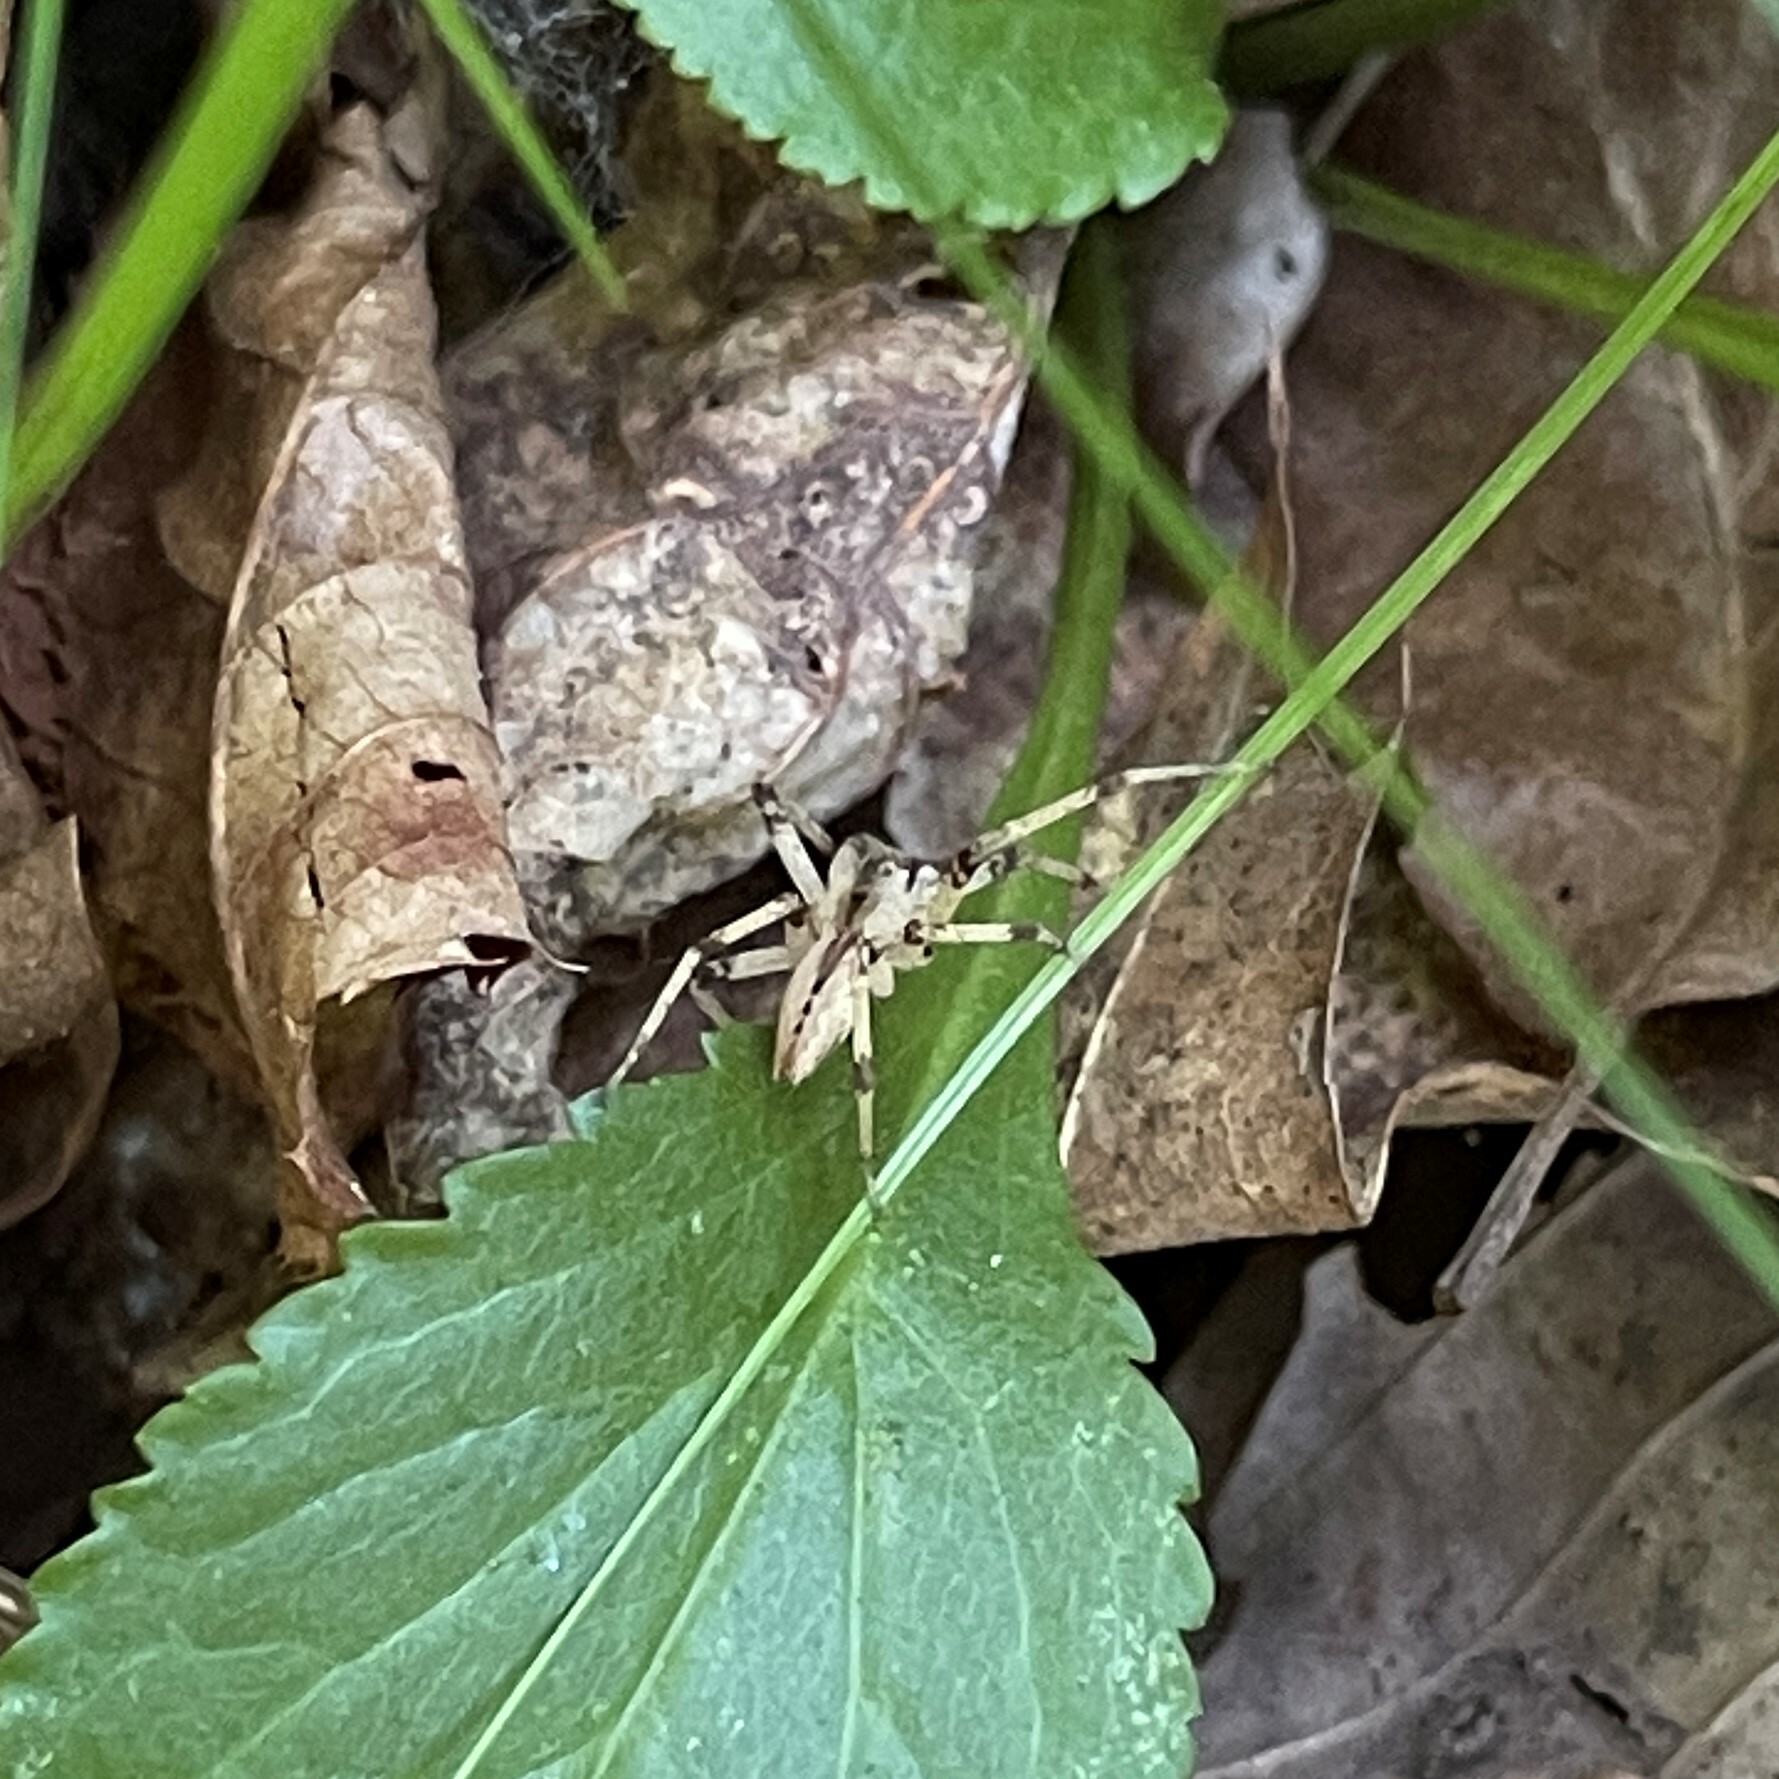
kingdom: Animalia
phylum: Arthropoda
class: Arachnida
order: Araneae
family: Pisauridae
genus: Pisaurina
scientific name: Pisaurina mira
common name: American nursery web spider
